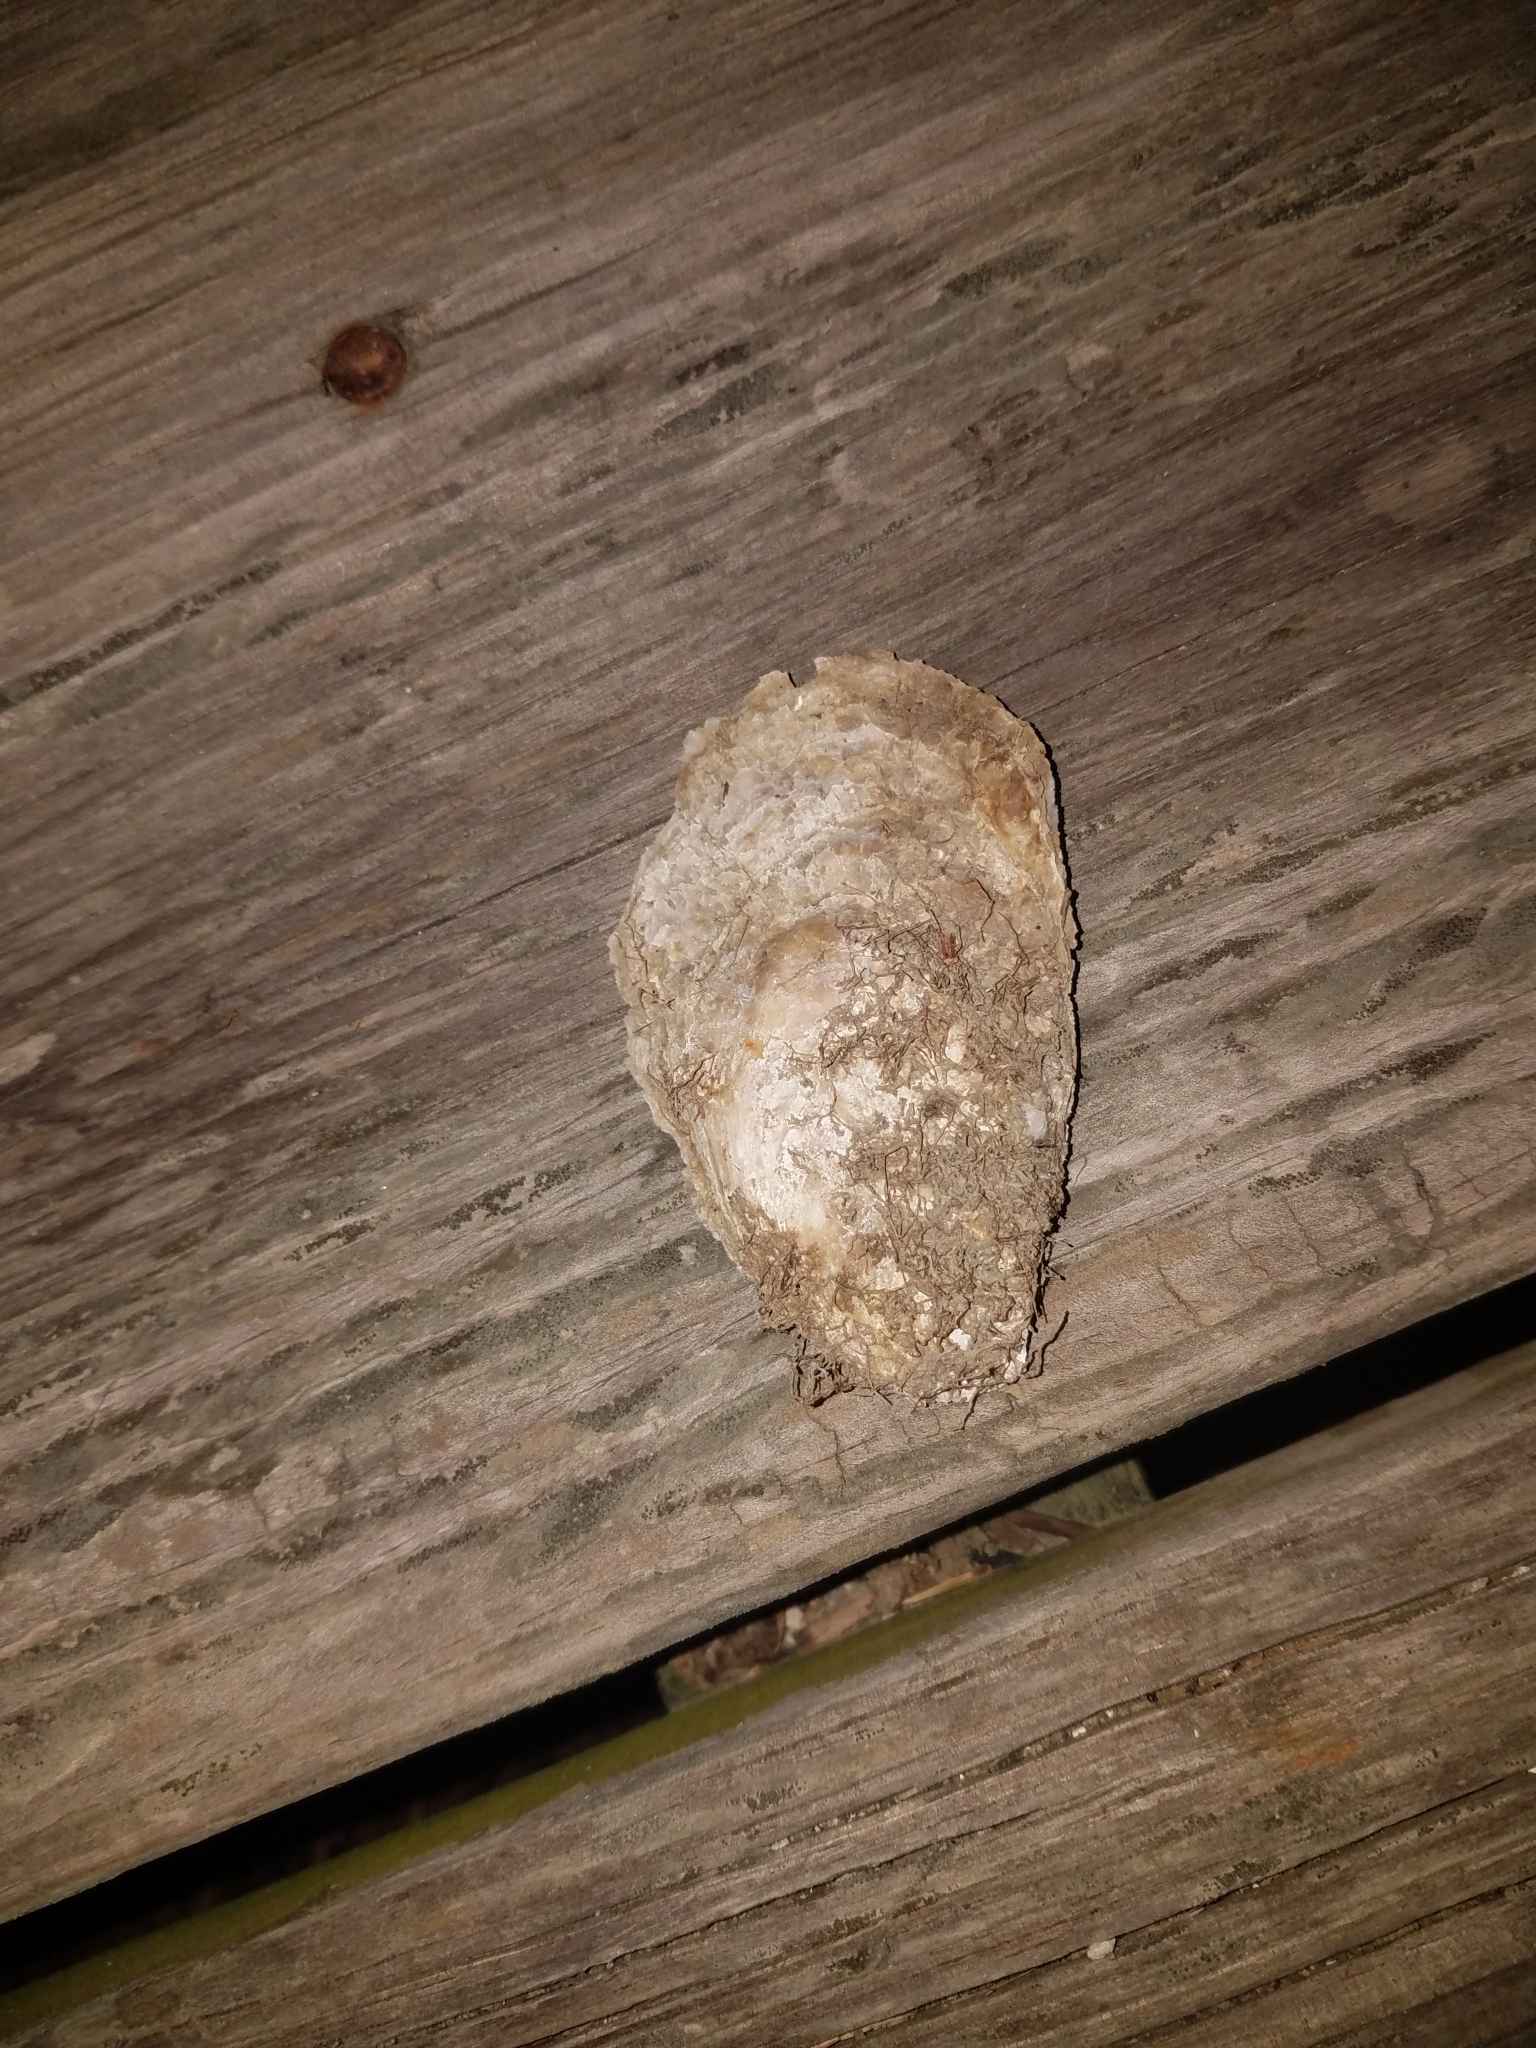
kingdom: Animalia
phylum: Mollusca
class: Bivalvia
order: Ostreida
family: Ostreidae
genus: Crassostrea
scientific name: Crassostrea virginica
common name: American oyster
